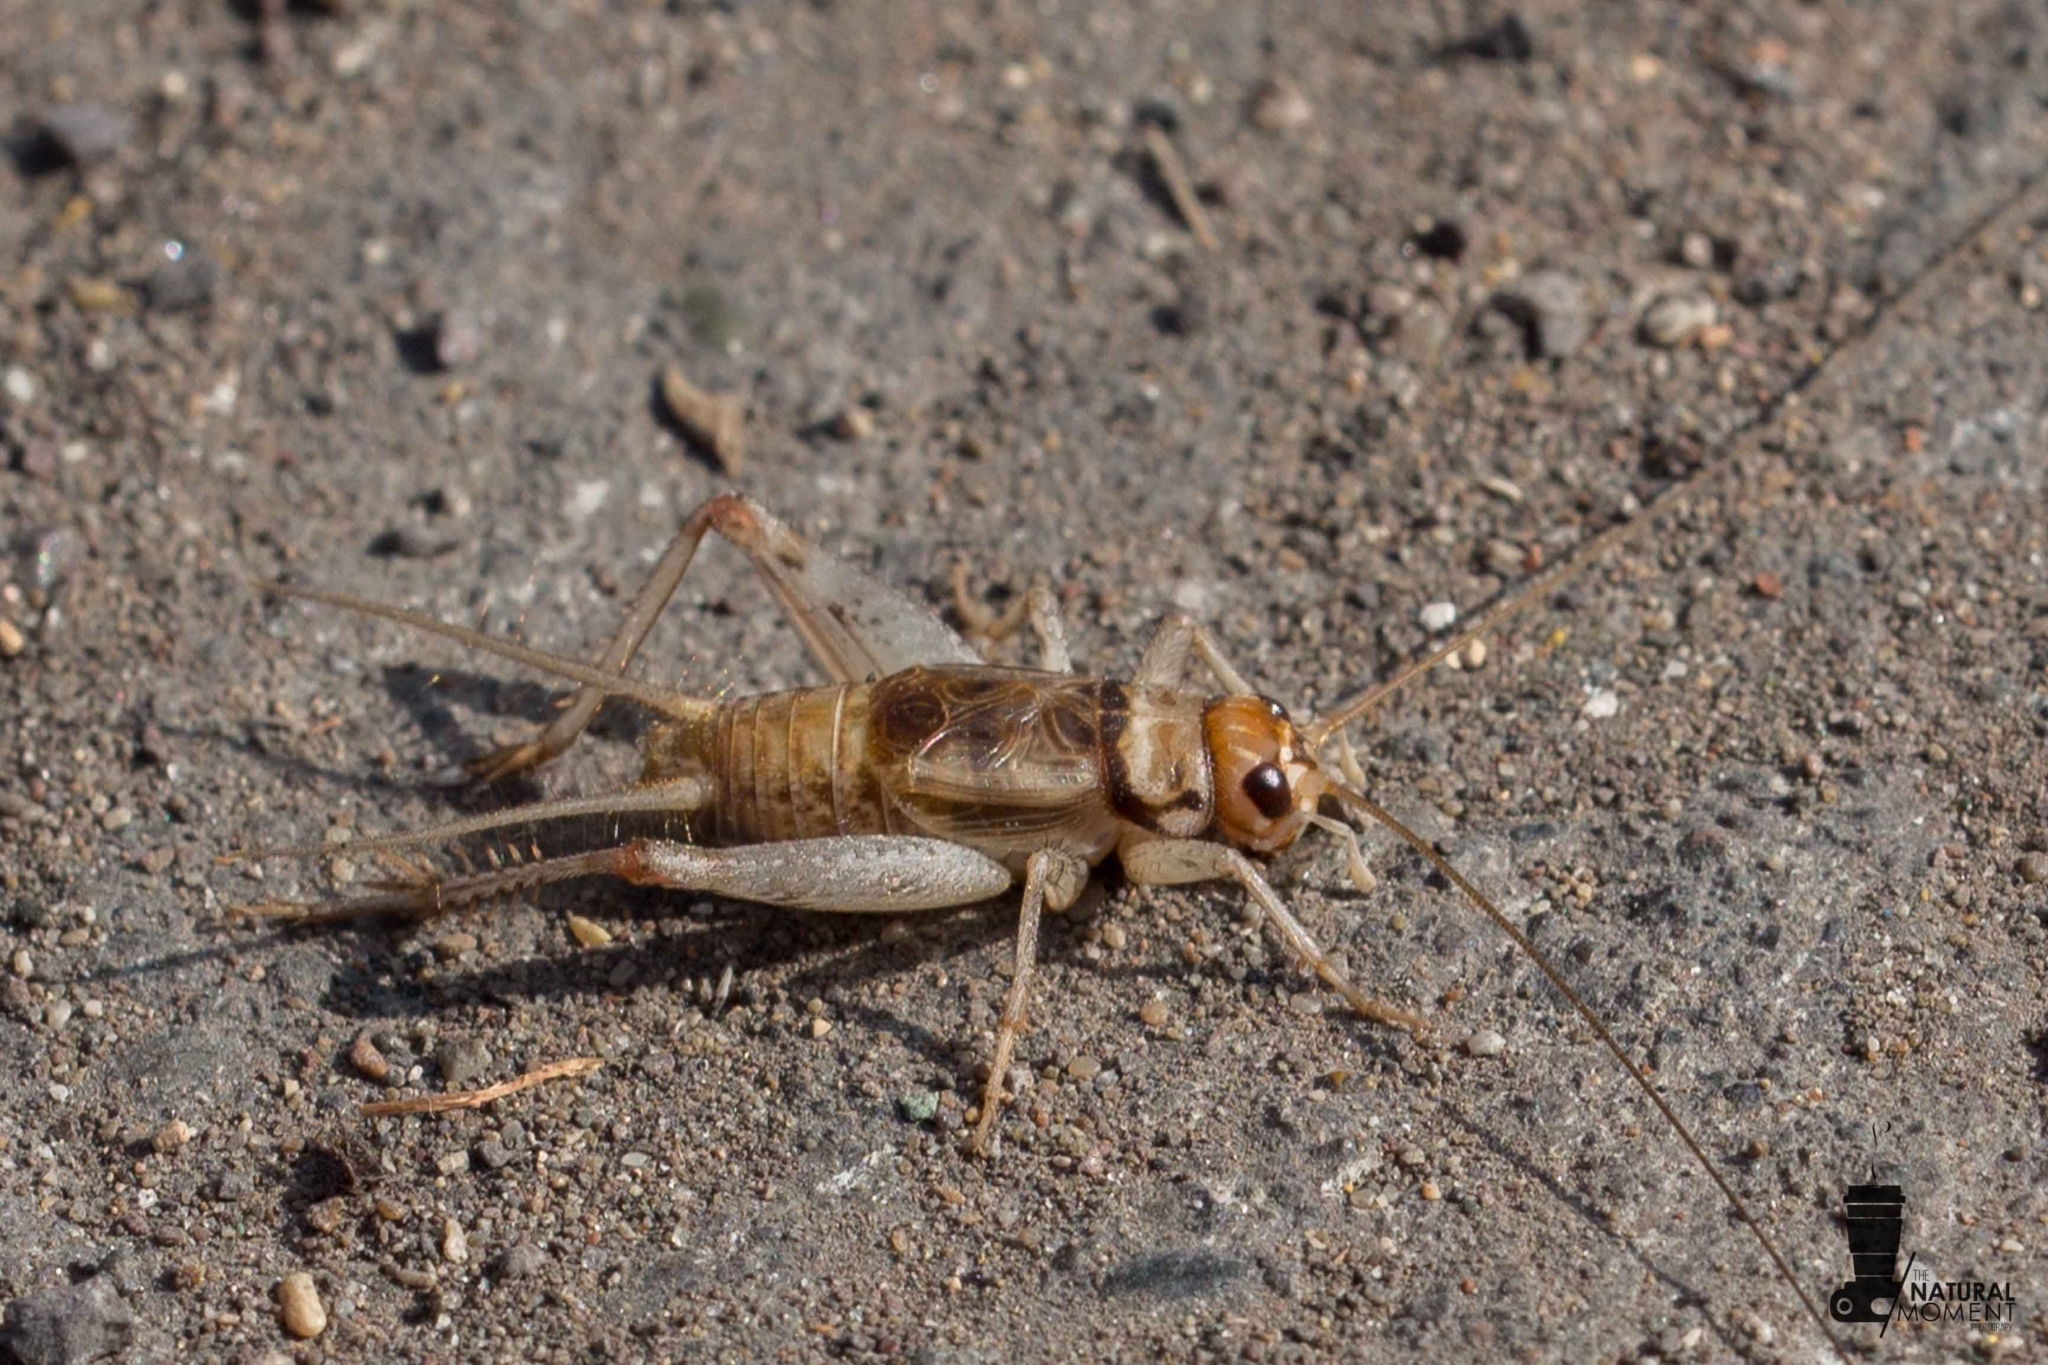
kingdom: Animalia
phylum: Arthropoda
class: Insecta
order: Orthoptera
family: Gryllidae
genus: Gryllodes
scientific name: Gryllodes sigillatus
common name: Tropical house cricket
